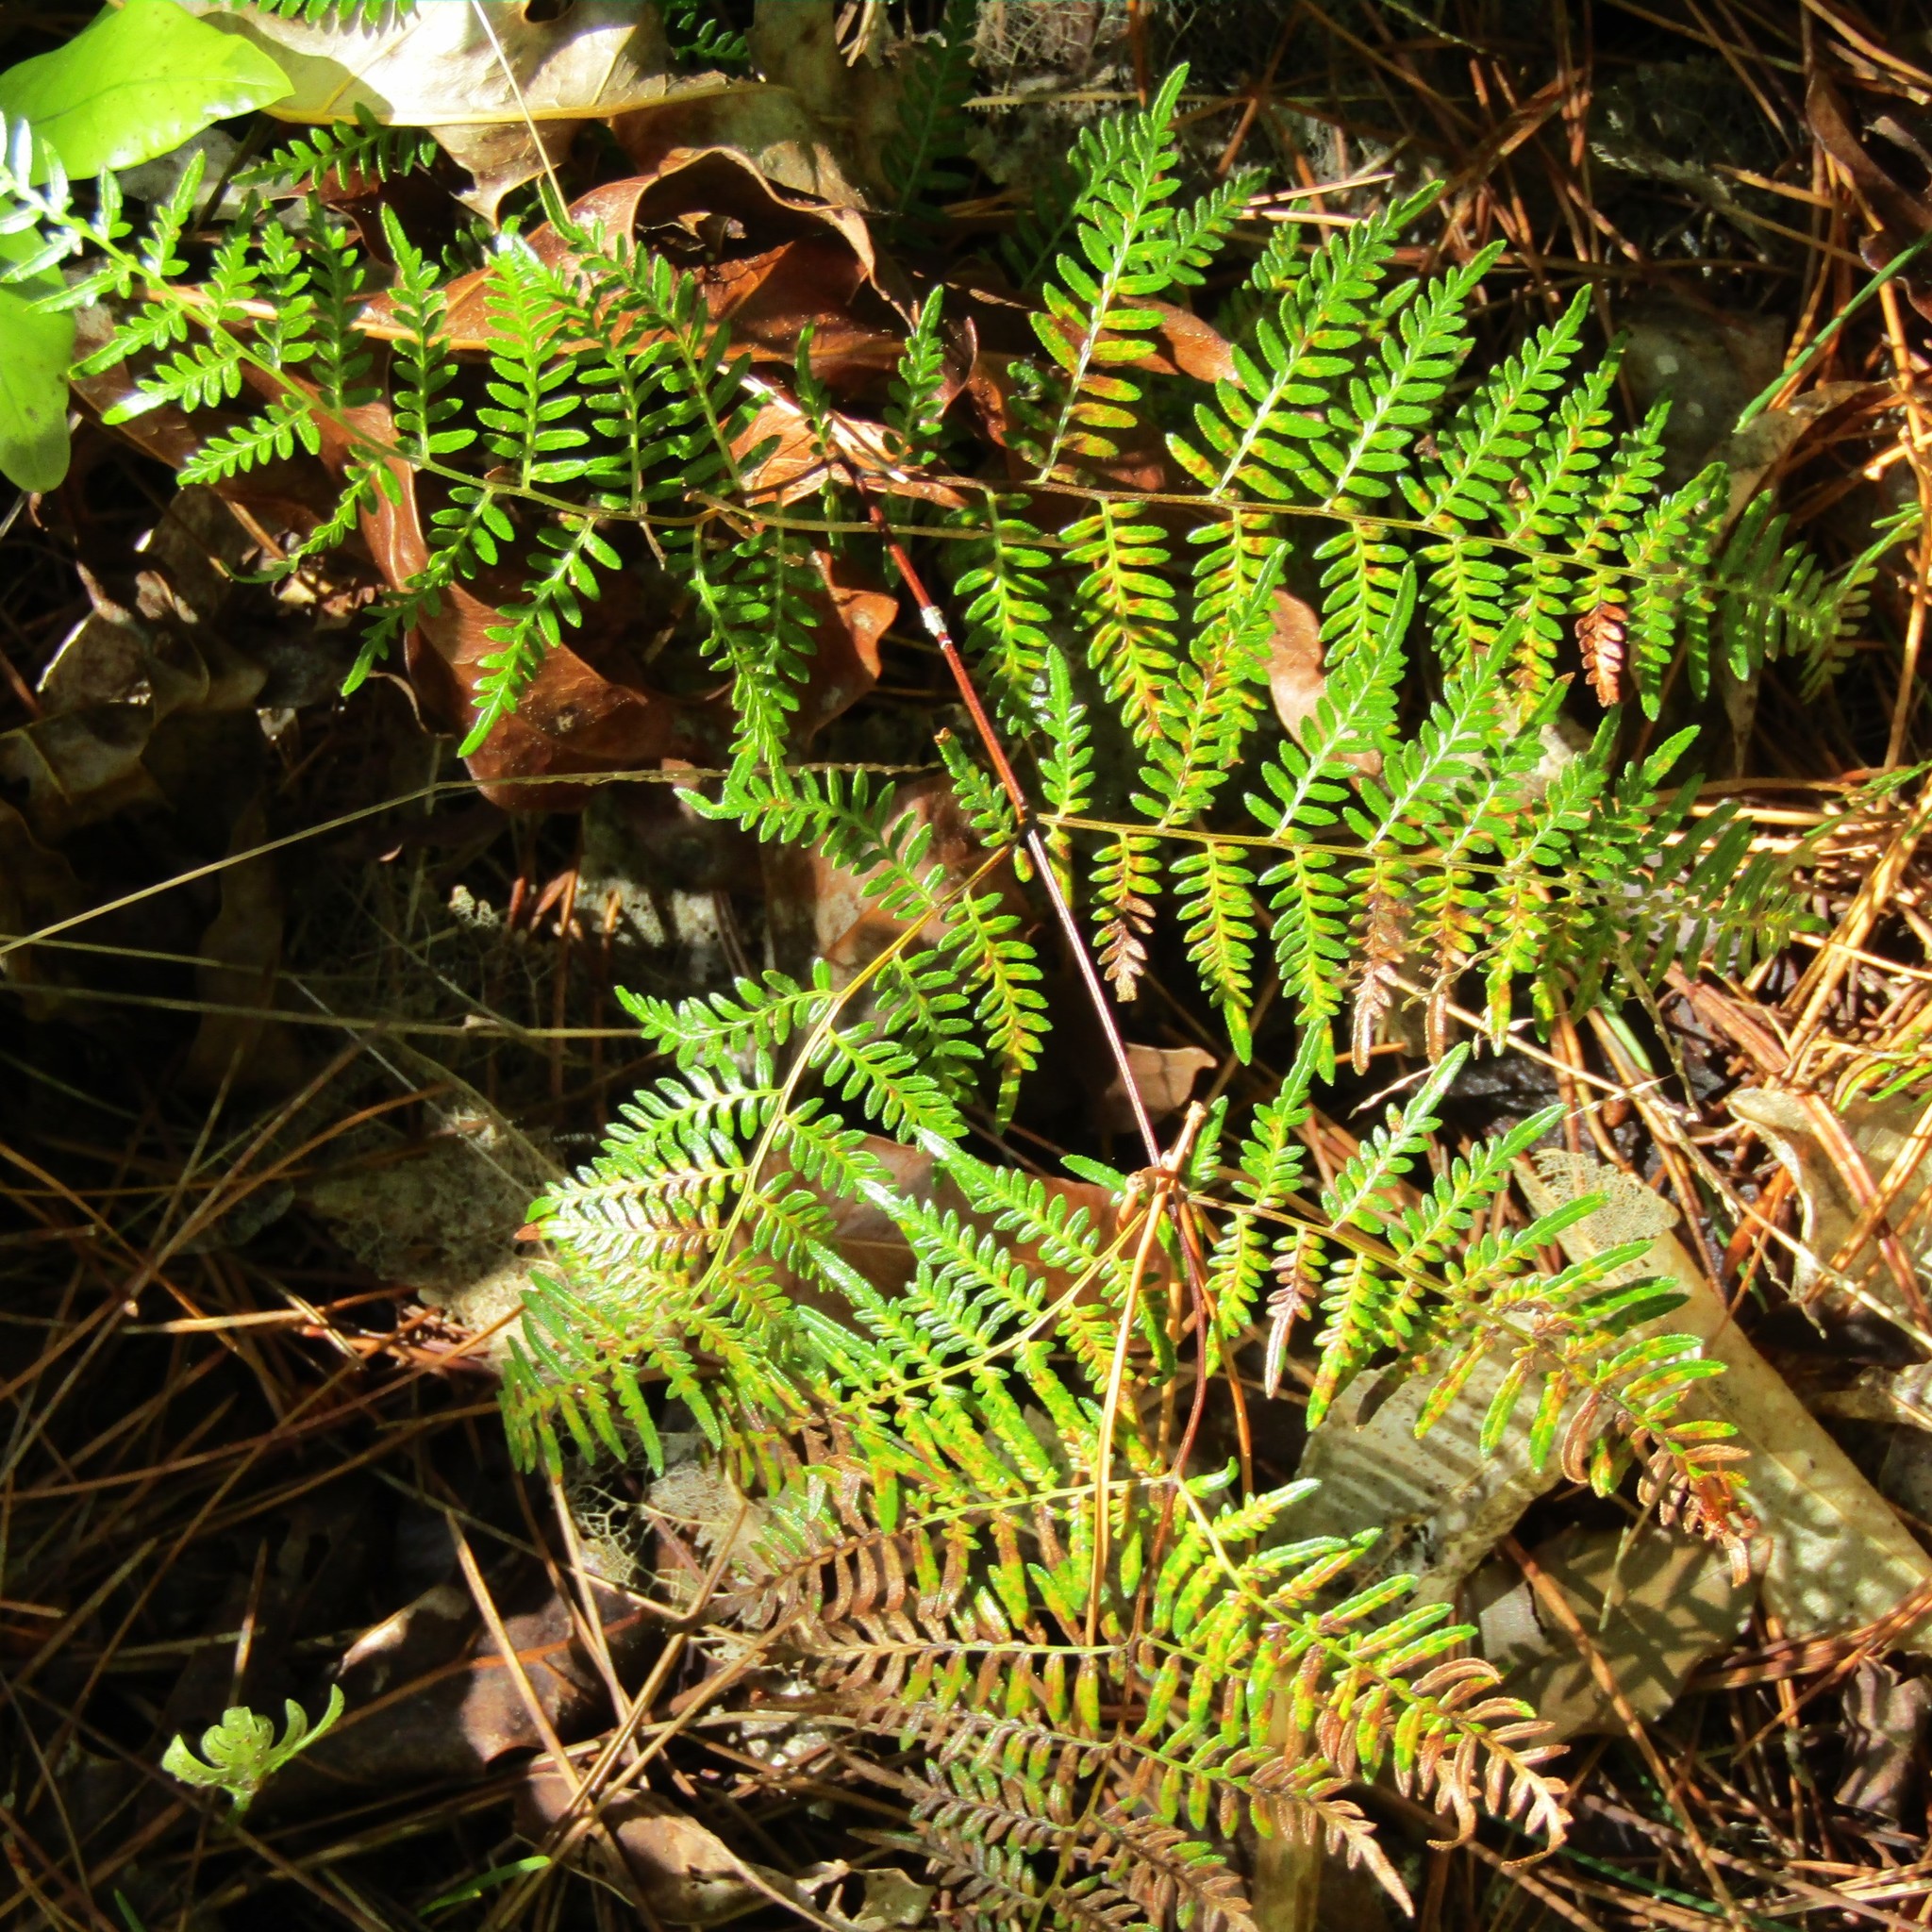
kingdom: Plantae
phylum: Tracheophyta
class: Polypodiopsida
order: Polypodiales
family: Dennstaedtiaceae
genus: Pteridium
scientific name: Pteridium esculentum
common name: Bracken fern
